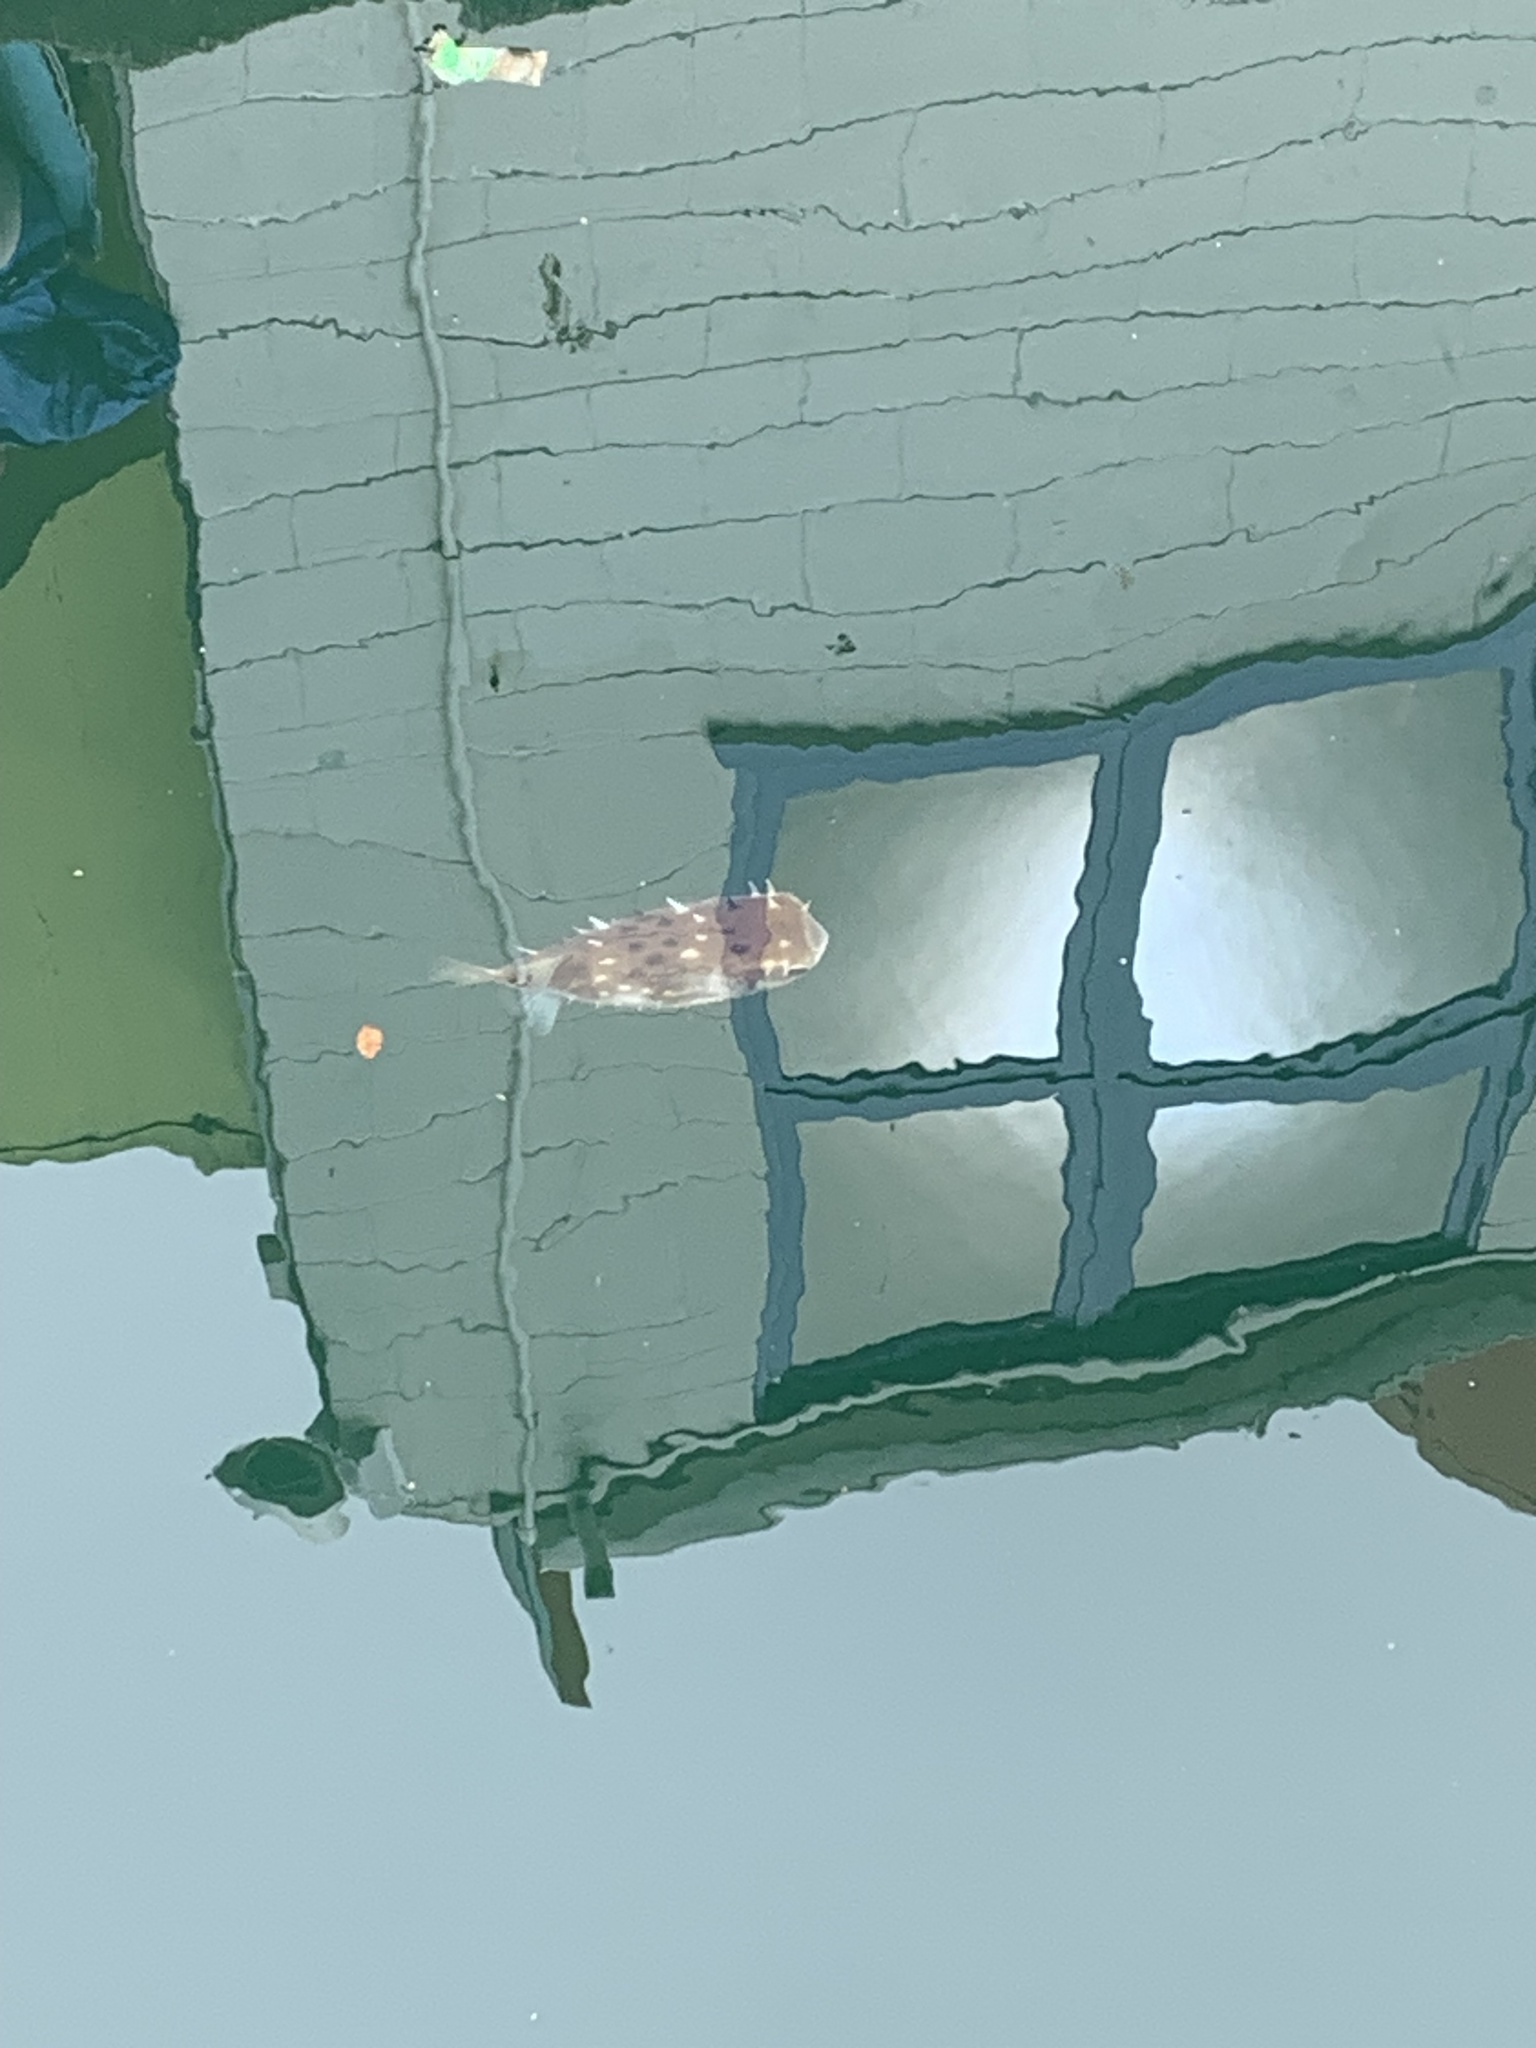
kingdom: Animalia
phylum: Chordata
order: Tetraodontiformes
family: Diodontidae
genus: Allomycterus
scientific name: Allomycterus pilatus
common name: No common name
